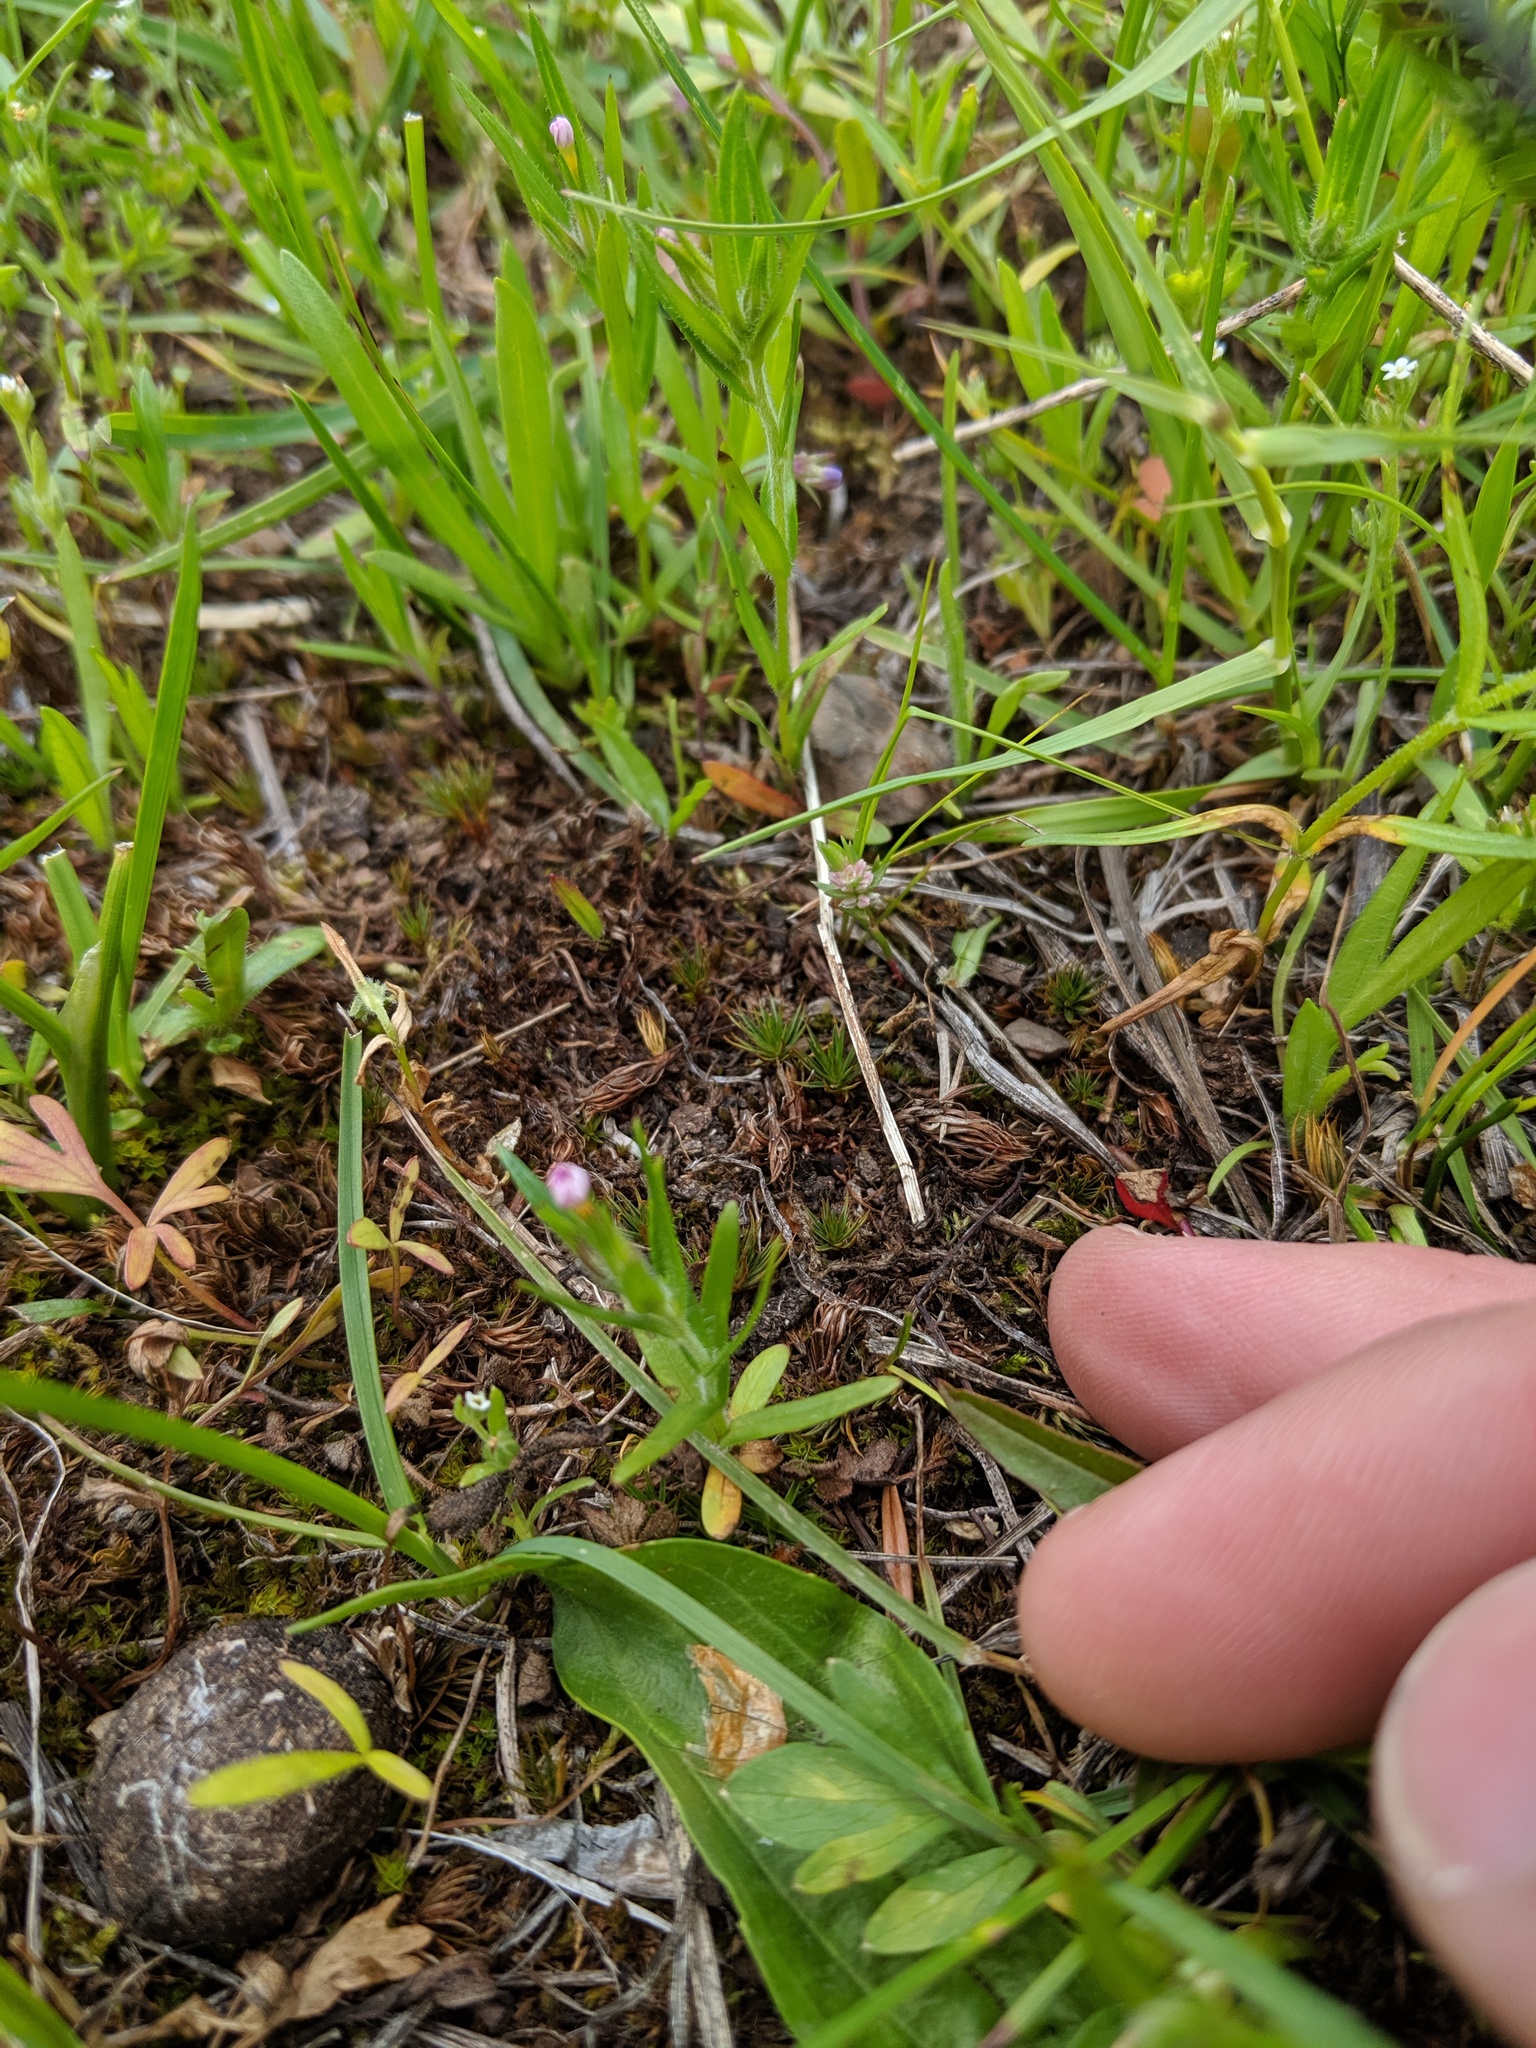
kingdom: Plantae
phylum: Tracheophyta
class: Magnoliopsida
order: Ericales
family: Polemoniaceae
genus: Phlox
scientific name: Phlox gracilis
